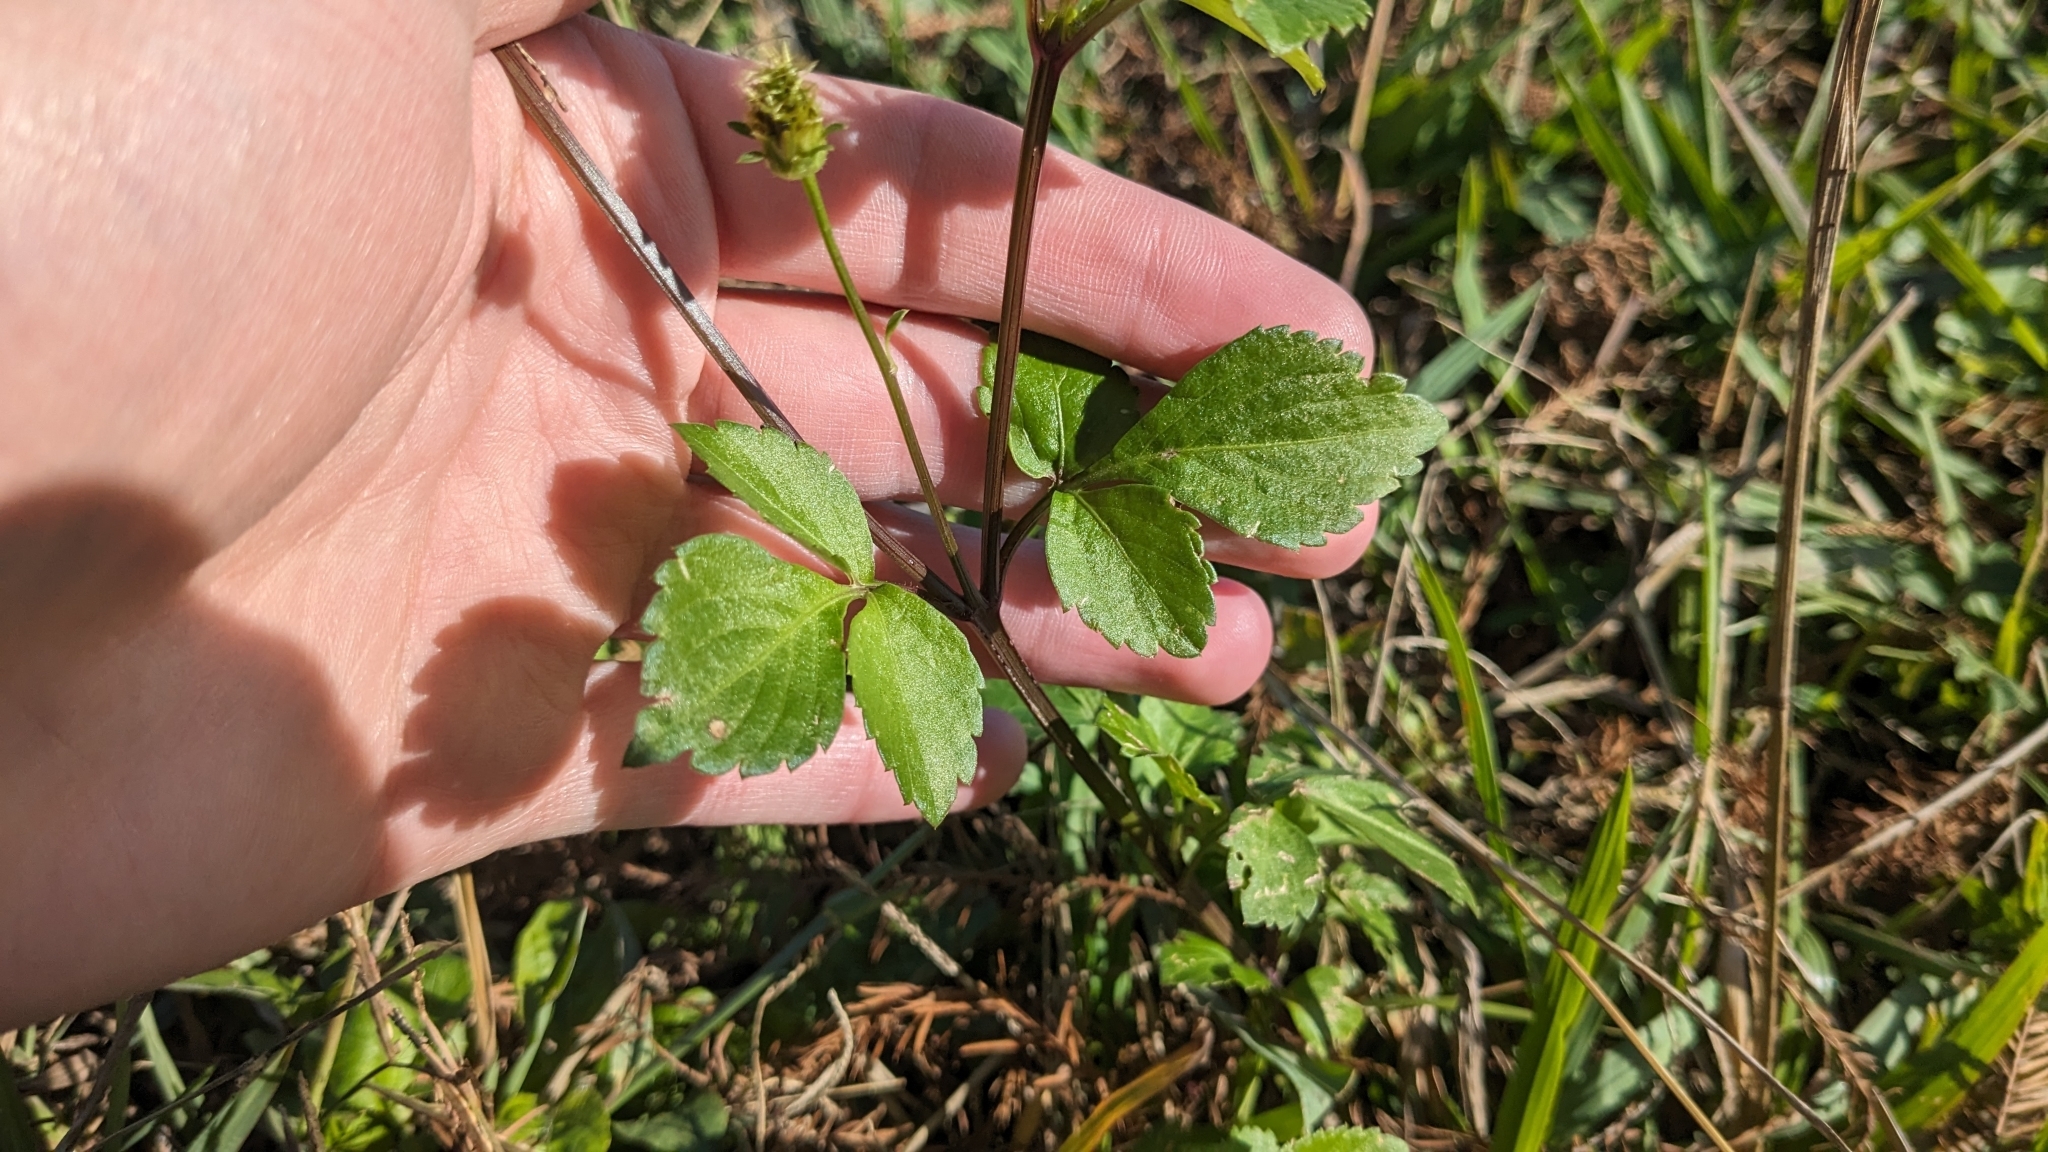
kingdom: Plantae
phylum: Tracheophyta
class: Magnoliopsida
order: Asterales
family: Asteraceae
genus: Bidens
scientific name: Bidens alba
